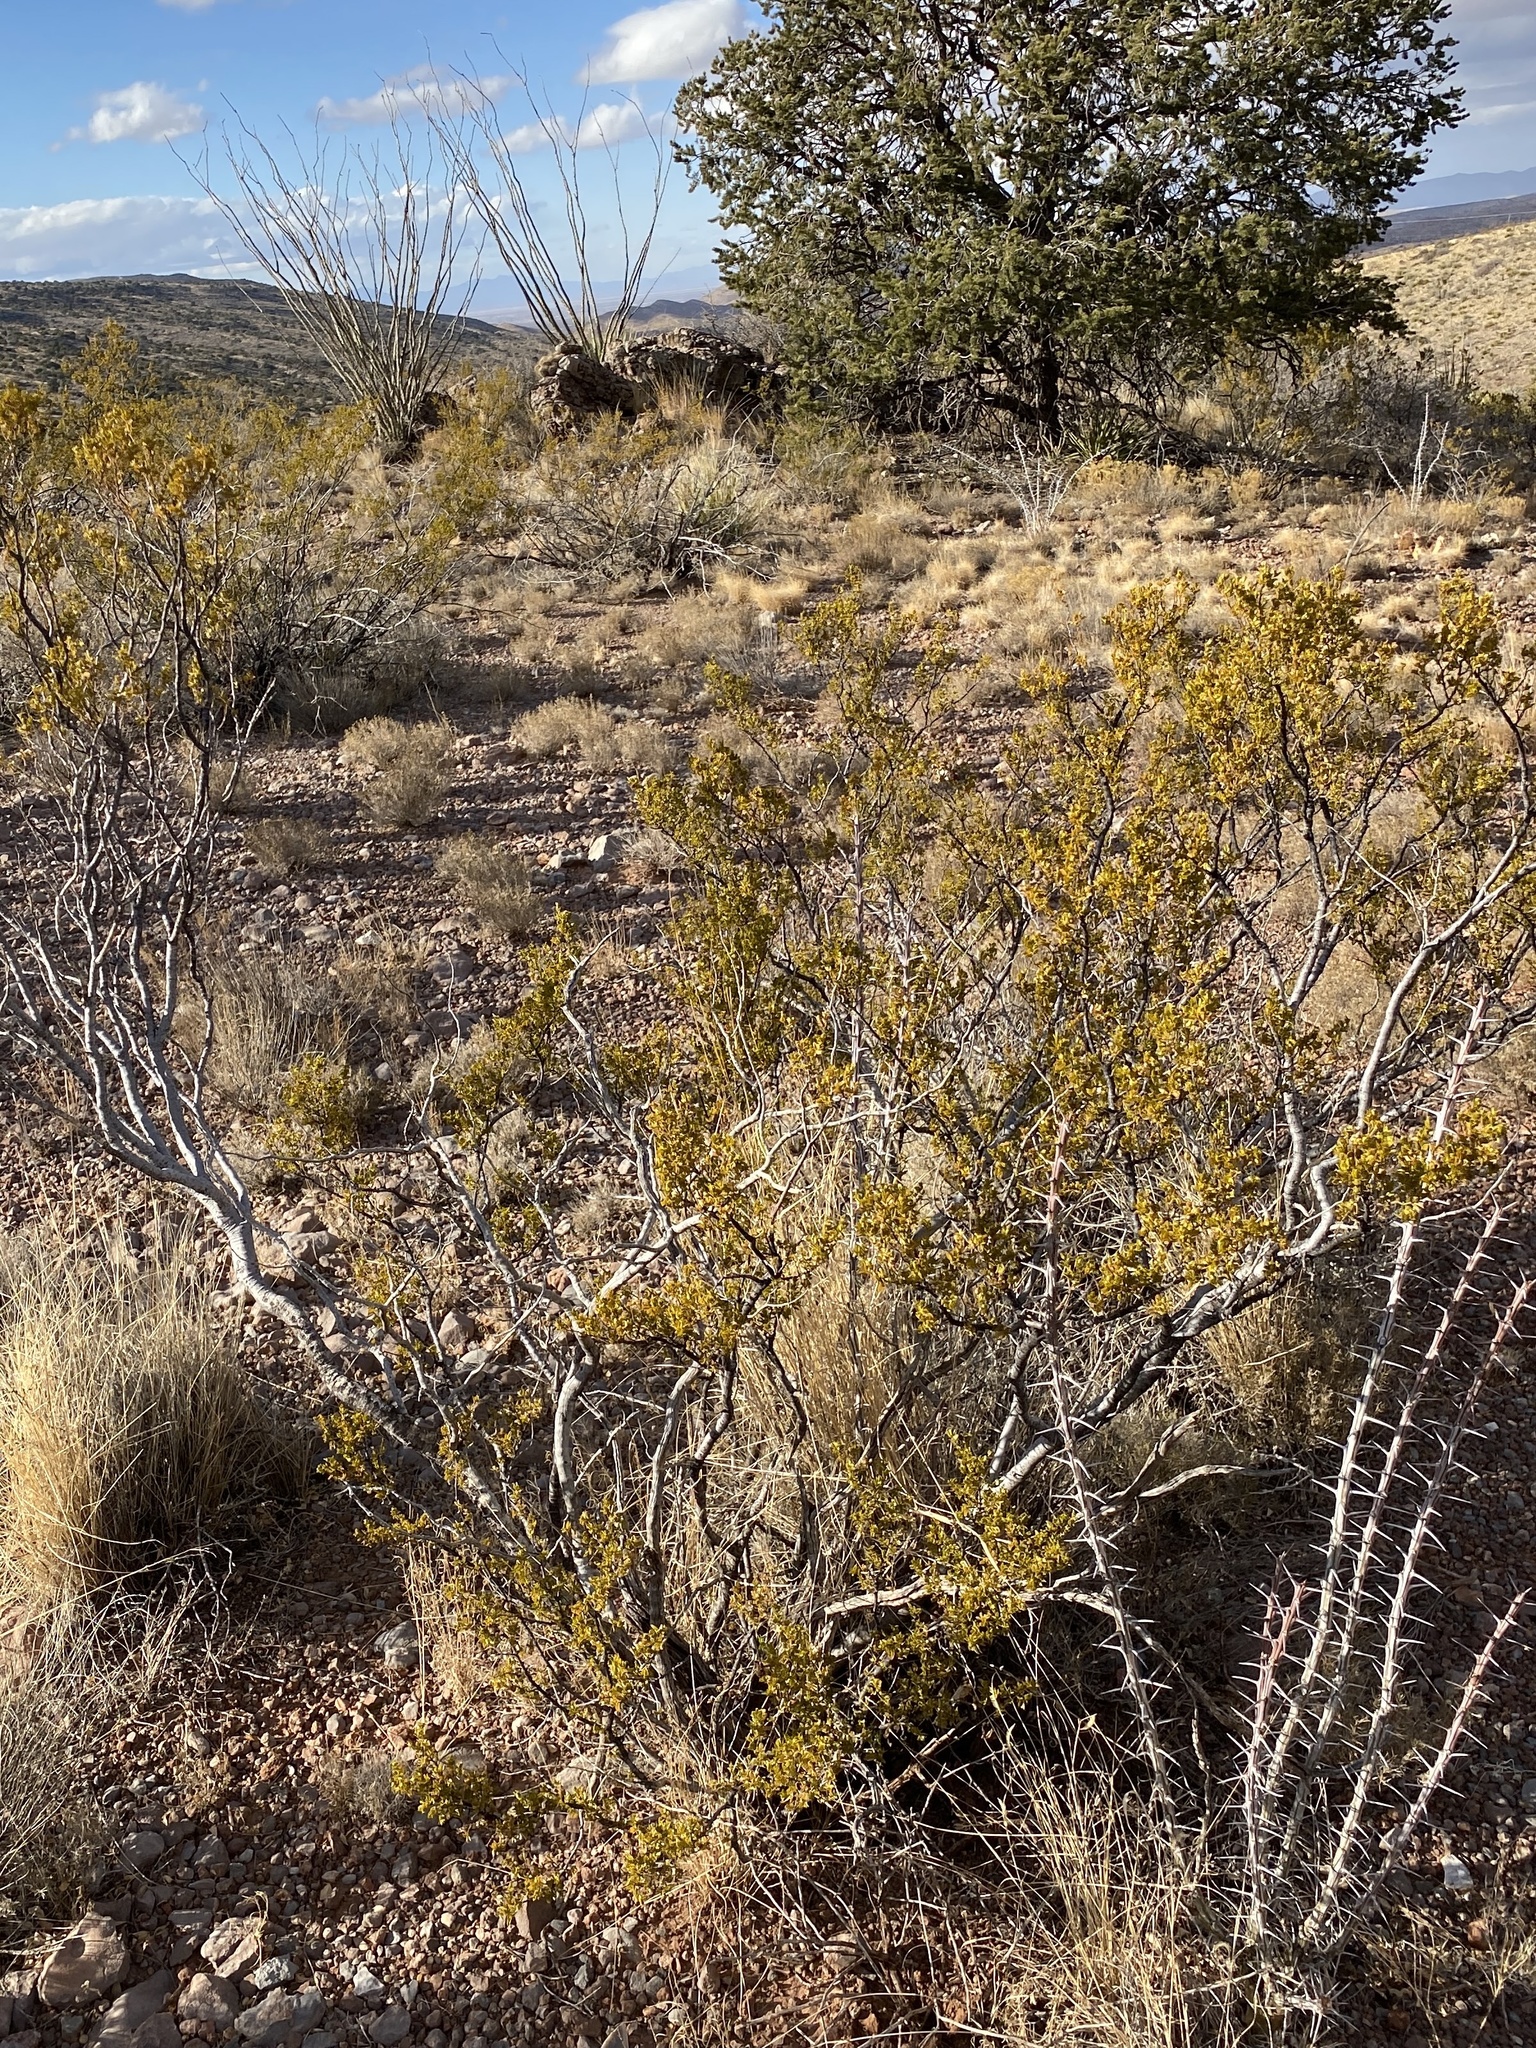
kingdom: Plantae
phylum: Tracheophyta
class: Magnoliopsida
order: Zygophyllales
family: Zygophyllaceae
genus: Larrea
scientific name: Larrea tridentata
